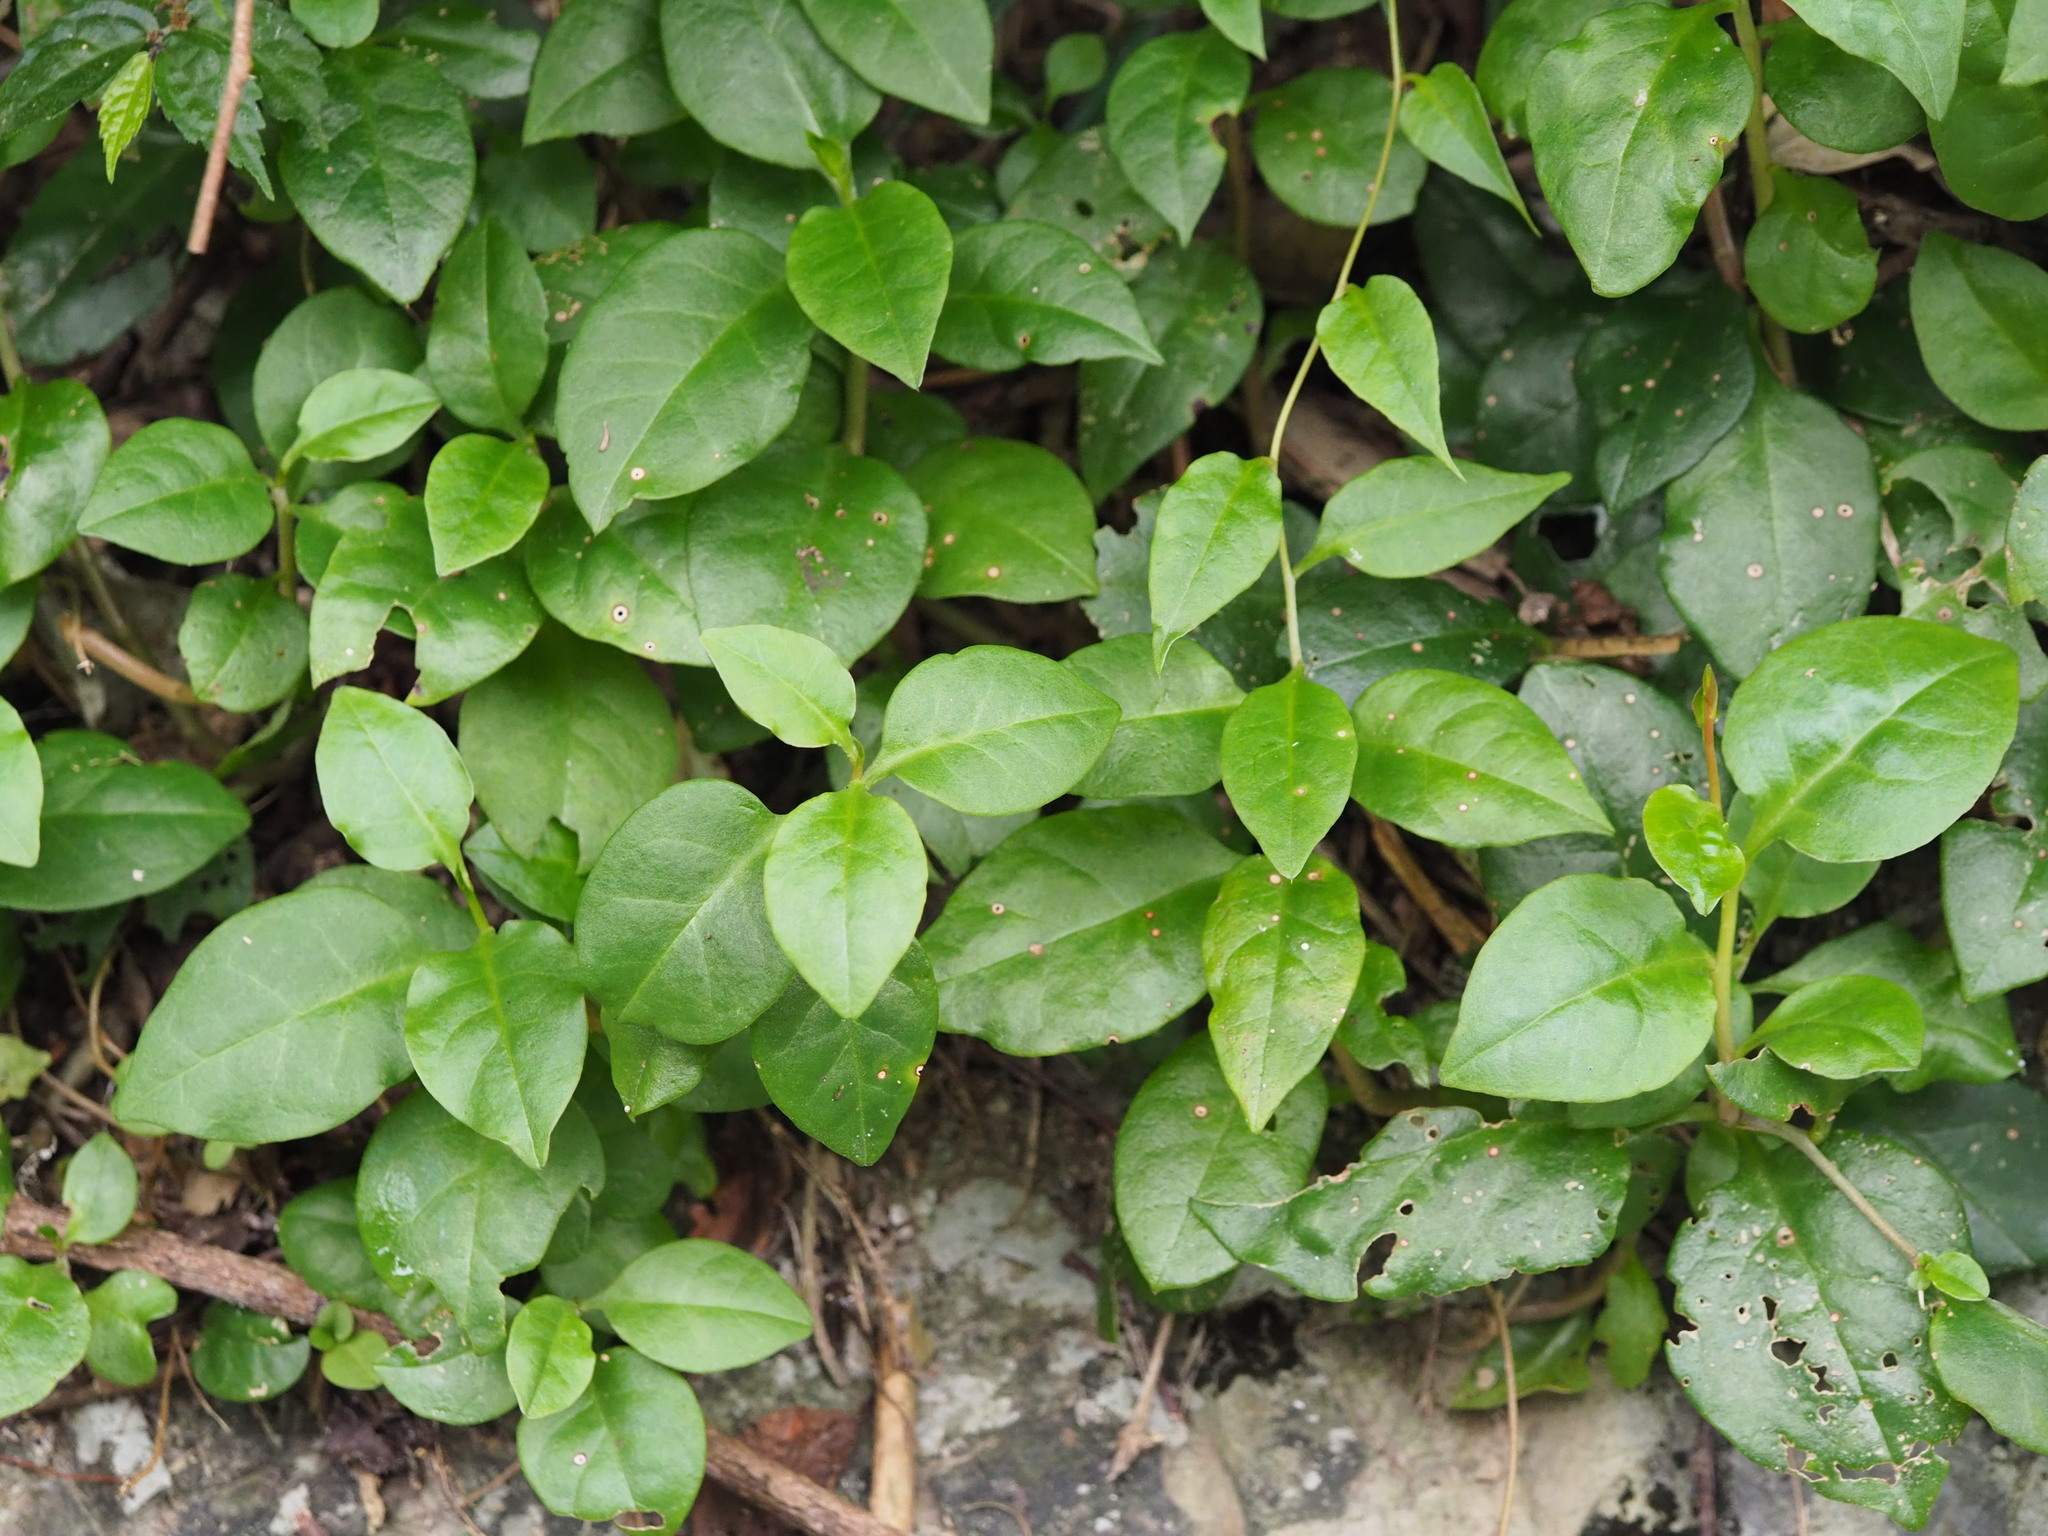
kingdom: Plantae
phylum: Tracheophyta
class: Magnoliopsida
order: Caryophyllales
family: Basellaceae
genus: Anredera
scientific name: Anredera cordifolia
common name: Heartleaf madeiravine
